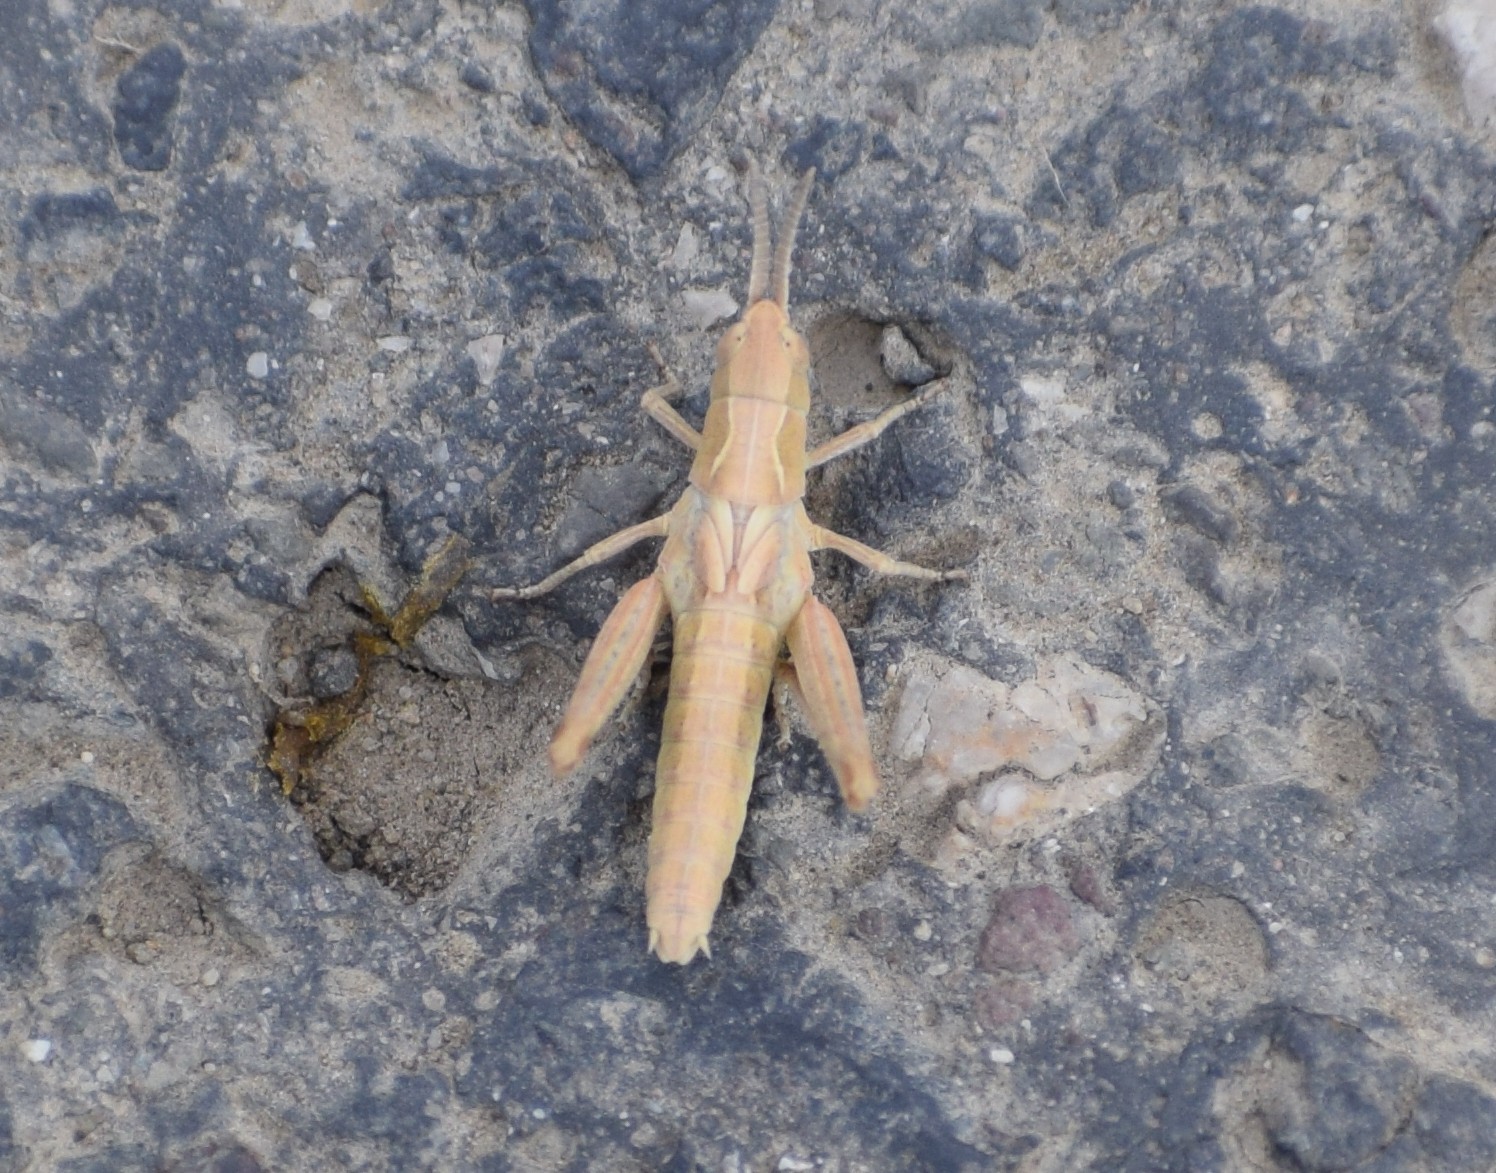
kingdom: Animalia
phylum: Arthropoda
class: Insecta
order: Orthoptera
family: Acrididae
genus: Glyptobothrus
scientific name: Glyptobothrus
